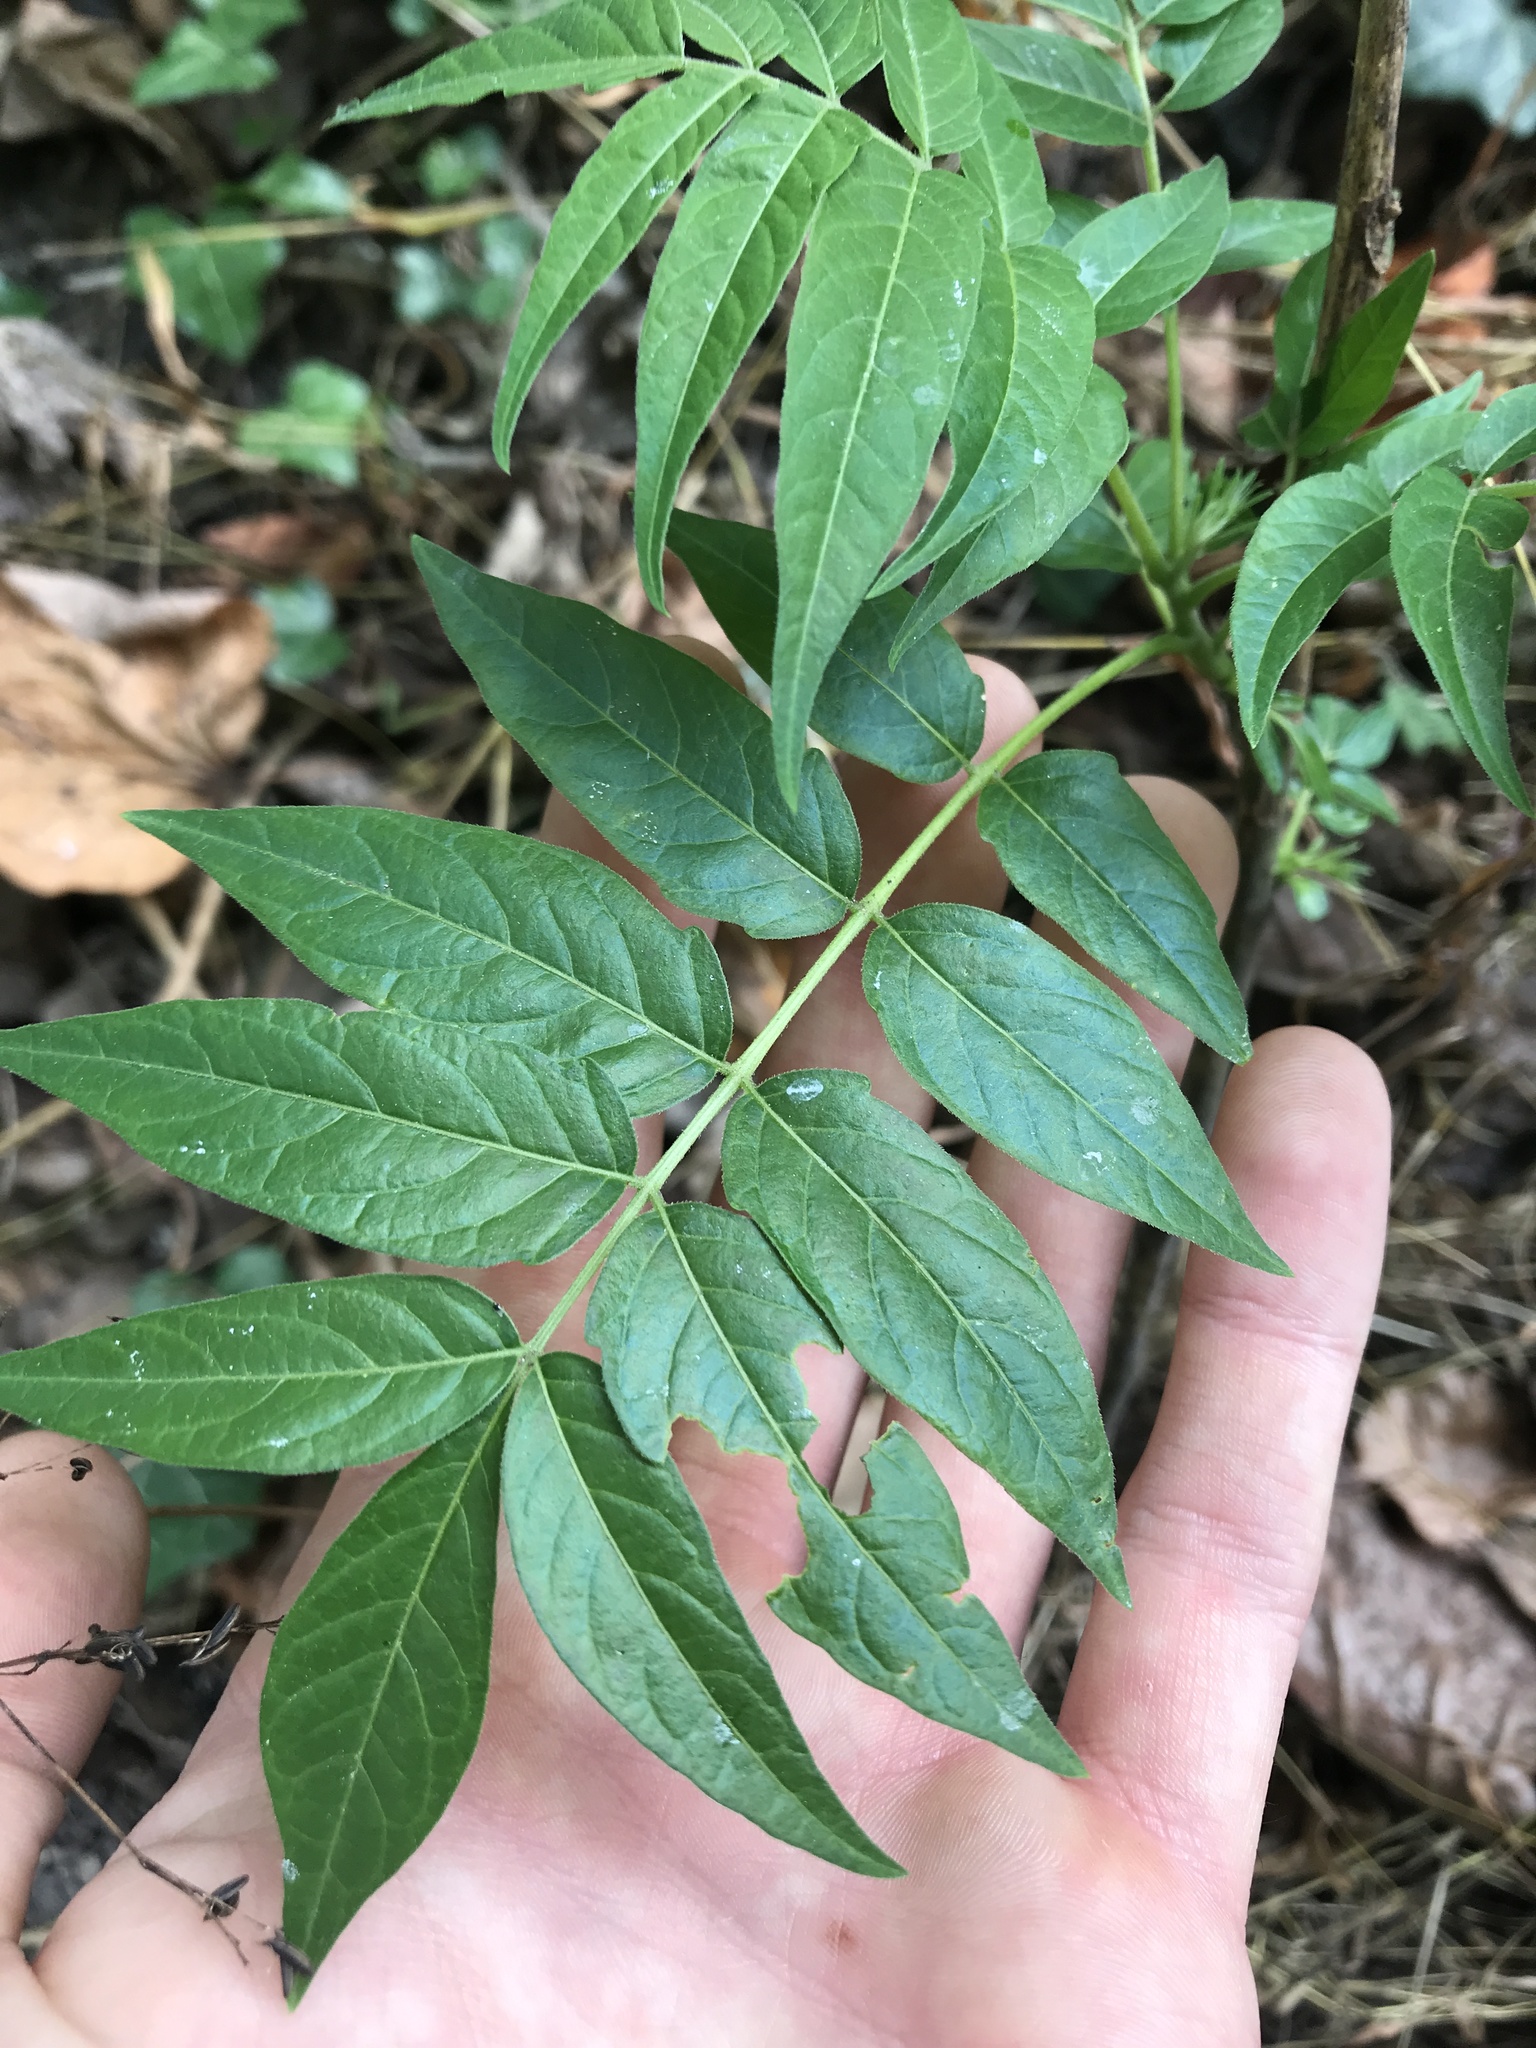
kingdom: Plantae
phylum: Tracheophyta
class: Magnoliopsida
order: Sapindales
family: Simaroubaceae
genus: Ailanthus
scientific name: Ailanthus altissima
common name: Tree-of-heaven
